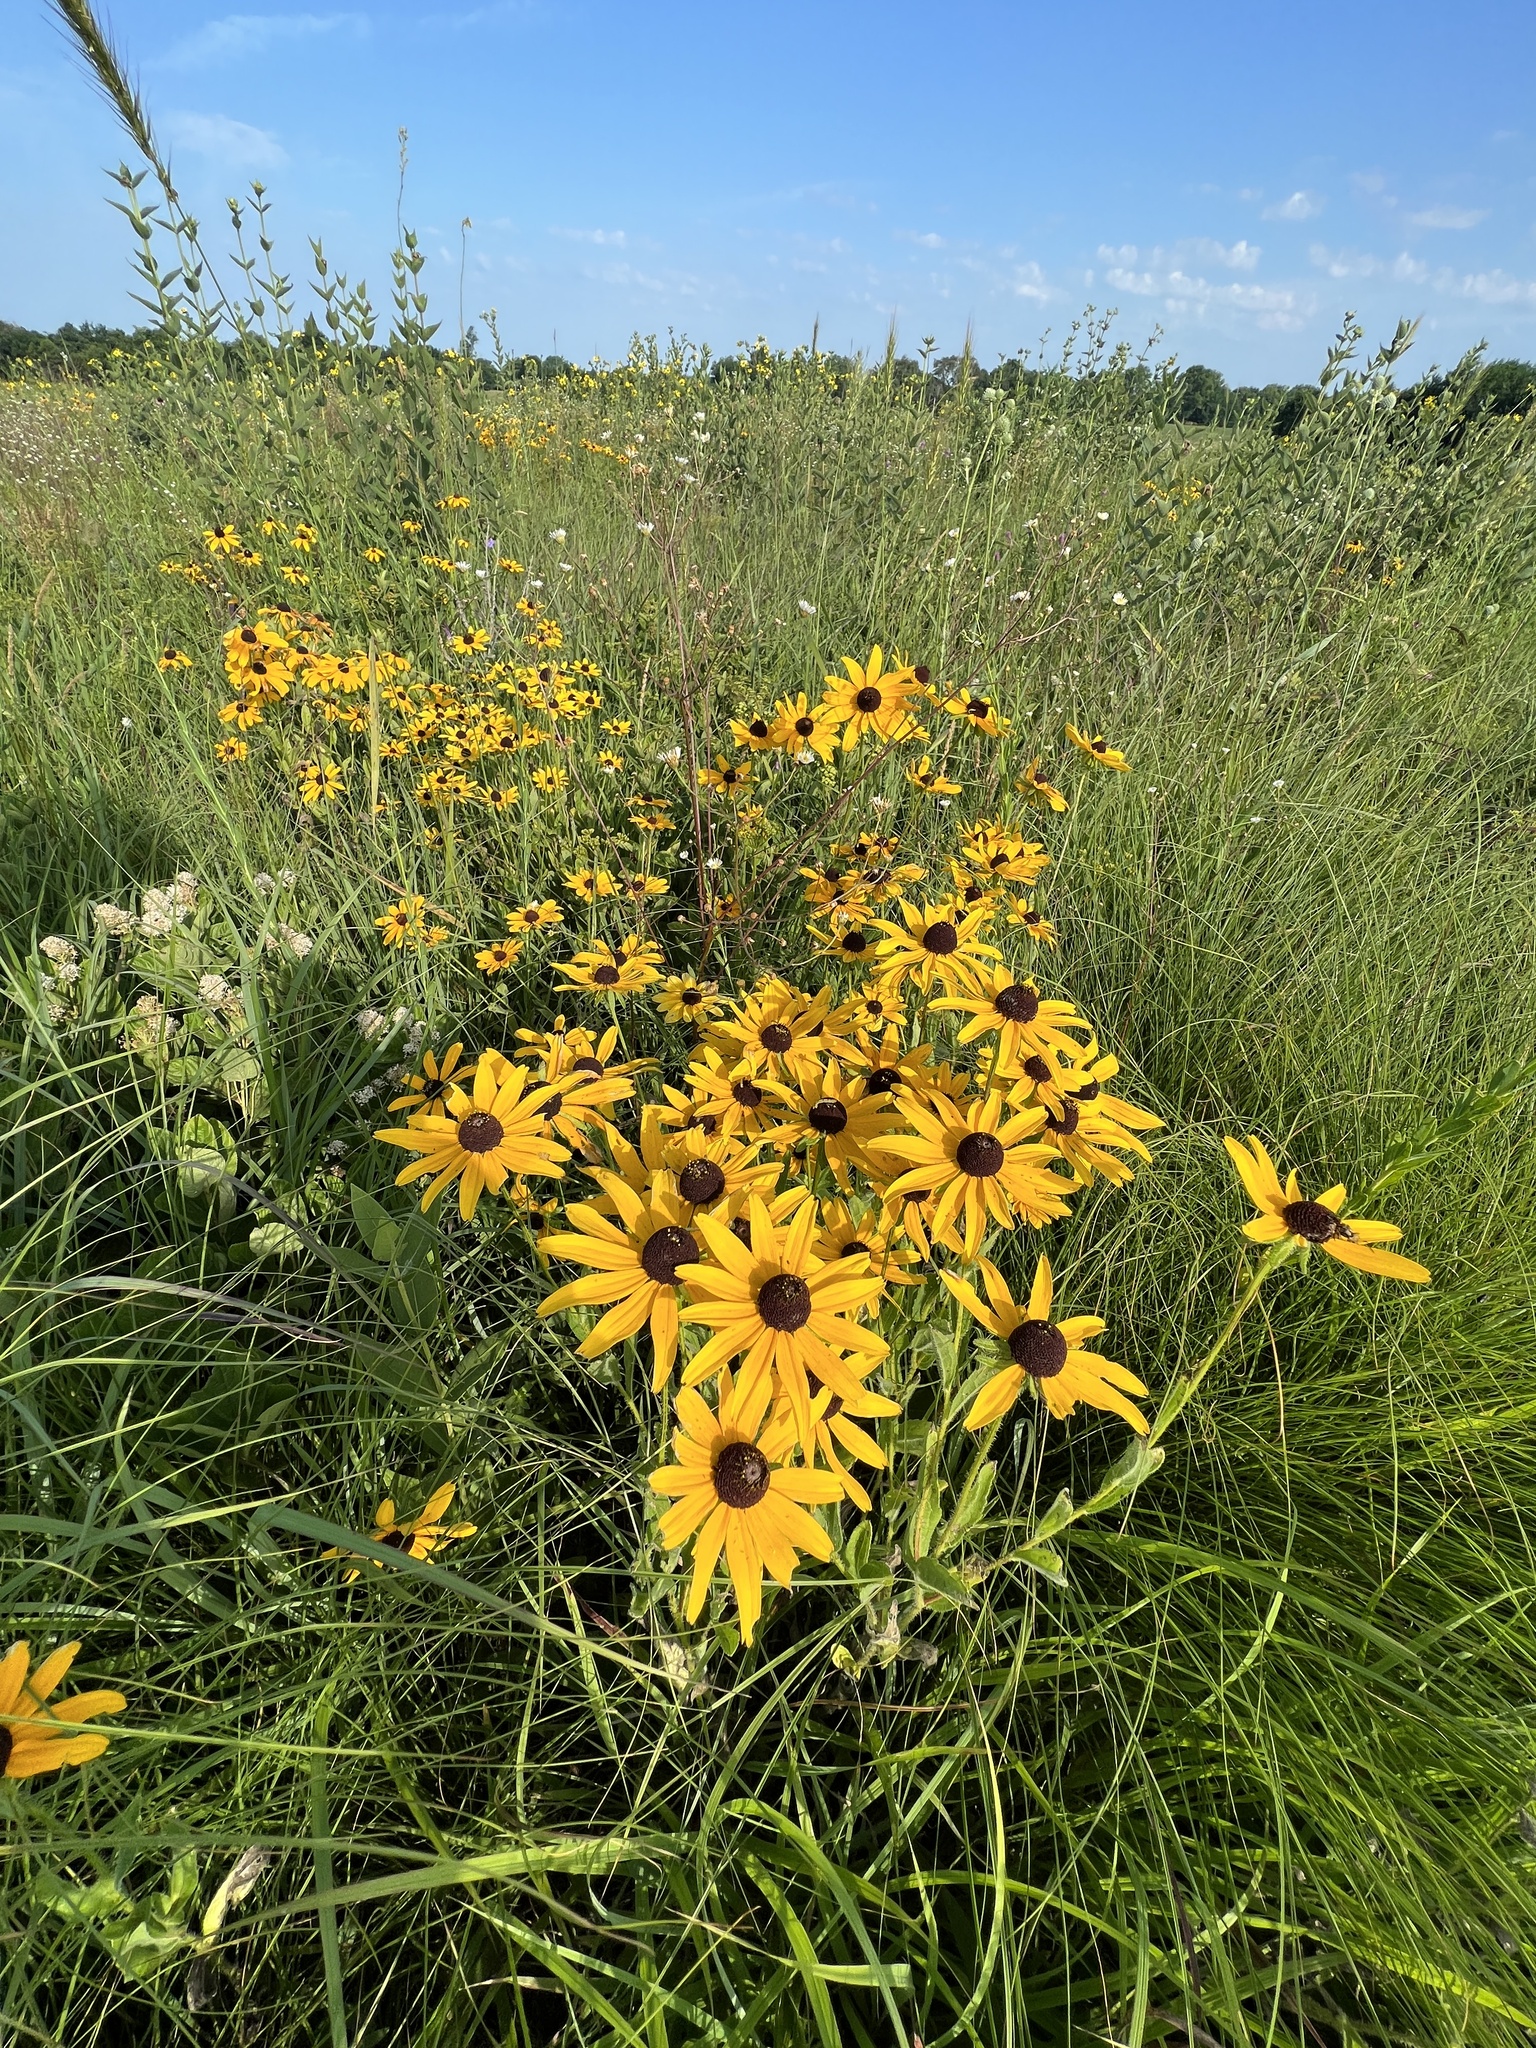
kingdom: Plantae
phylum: Tracheophyta
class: Magnoliopsida
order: Asterales
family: Asteraceae
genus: Rudbeckia
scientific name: Rudbeckia hirta
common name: Black-eyed-susan
